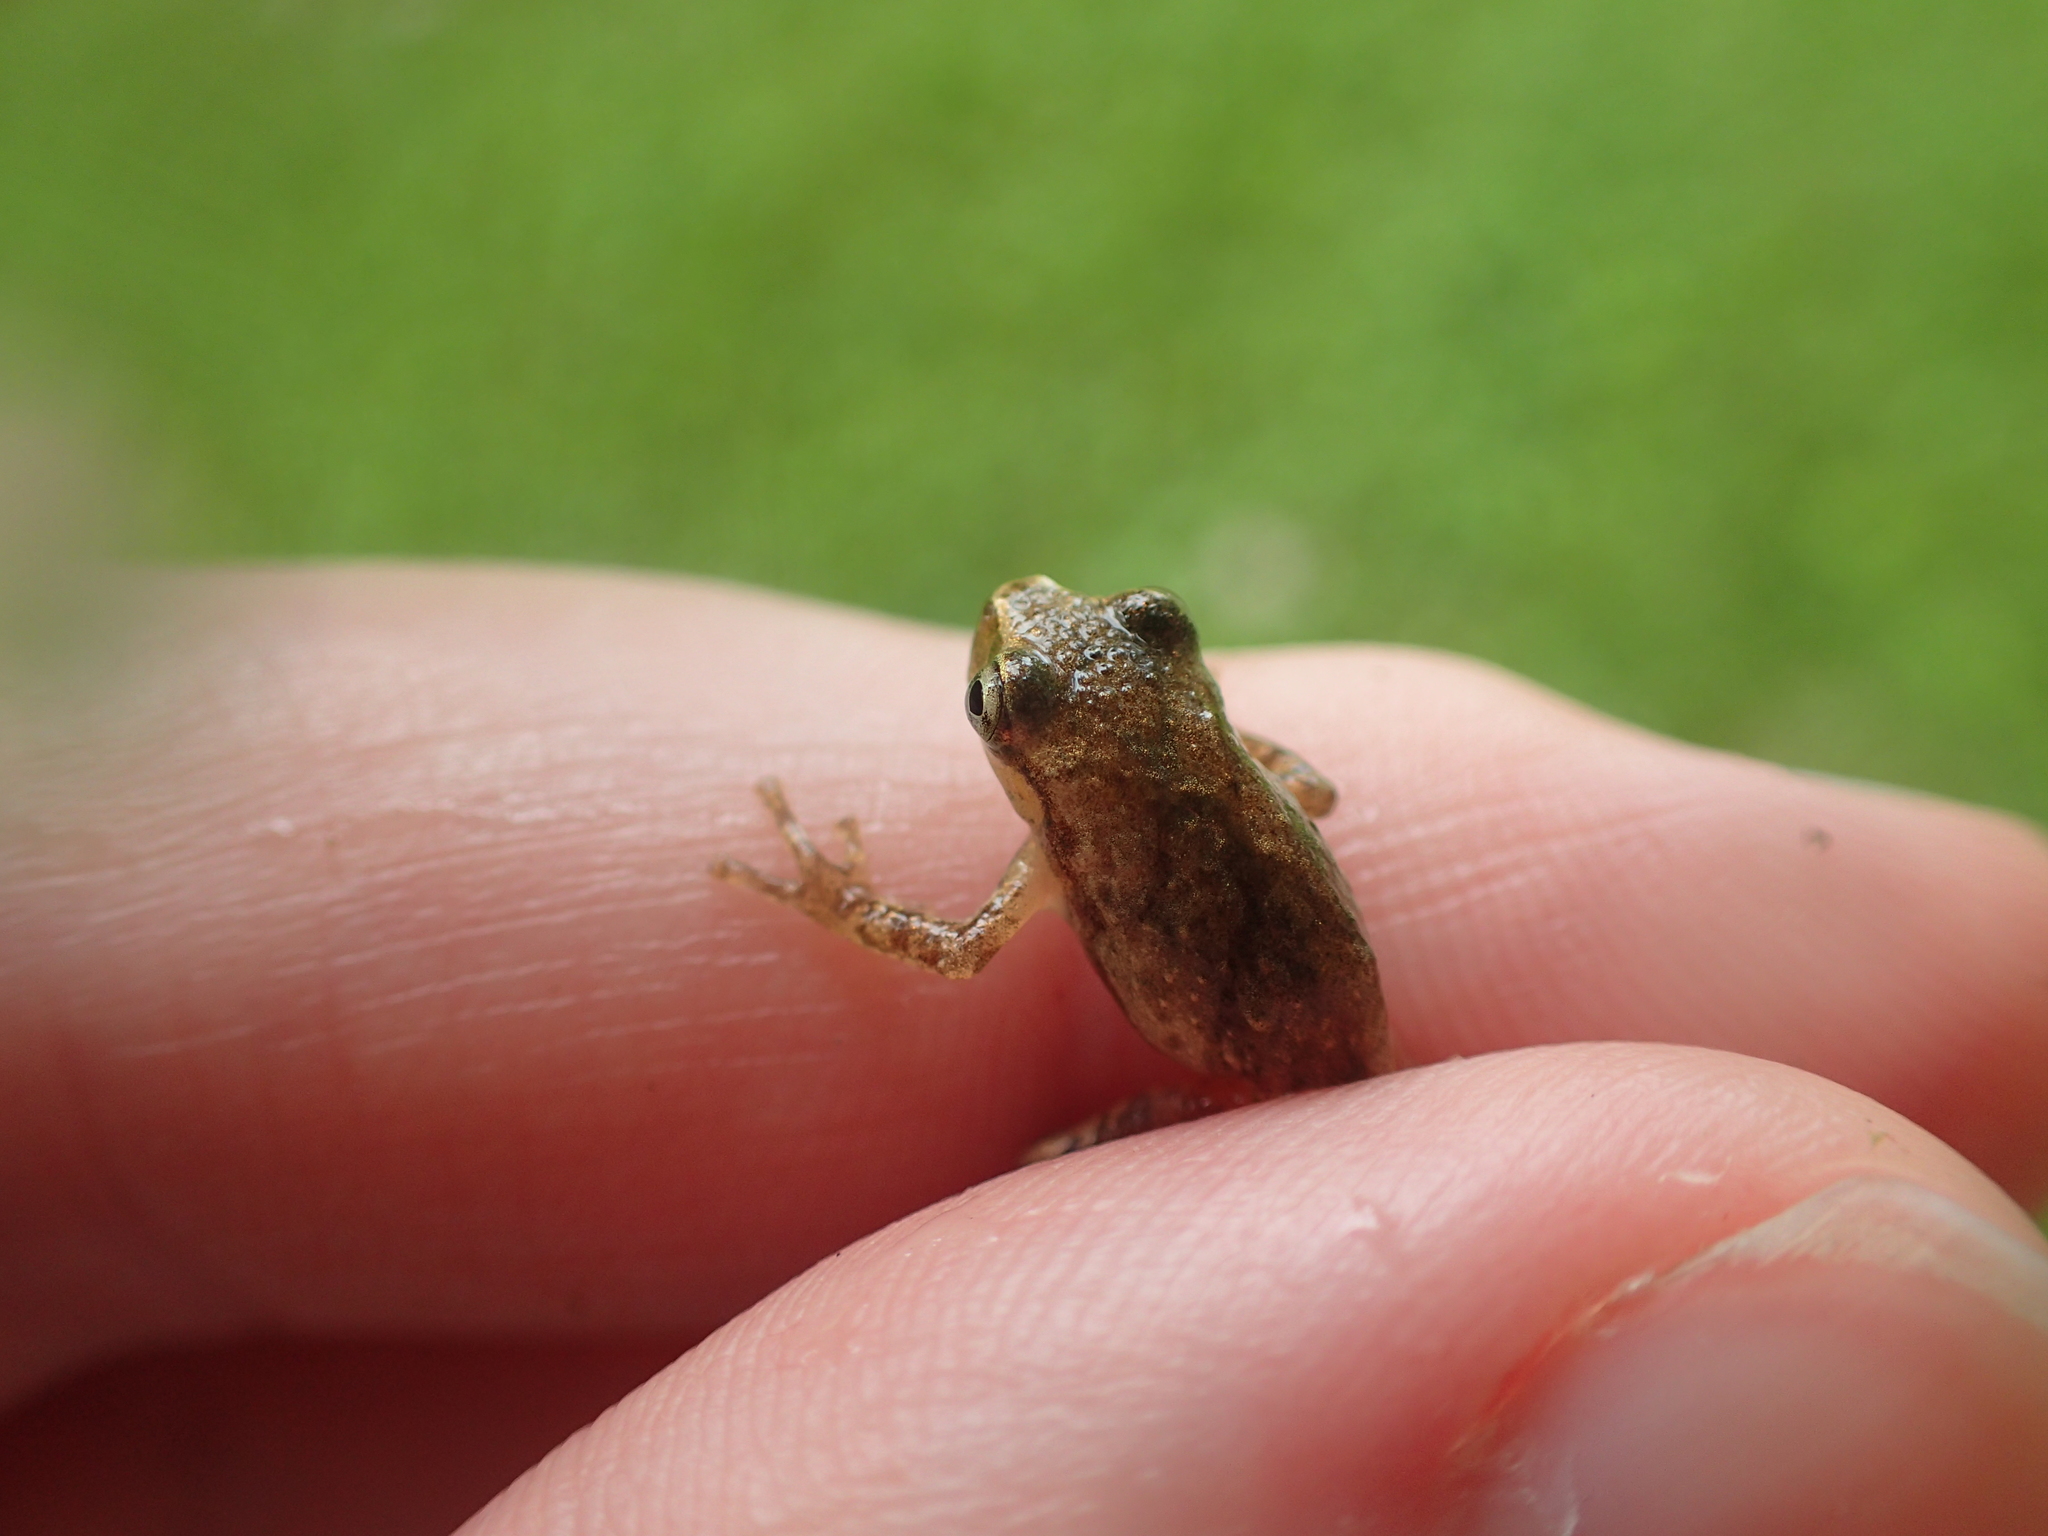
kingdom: Animalia
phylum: Chordata
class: Amphibia
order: Anura
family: Hylidae
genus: Pseudacris
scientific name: Pseudacris crucifer
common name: Spring peeper
